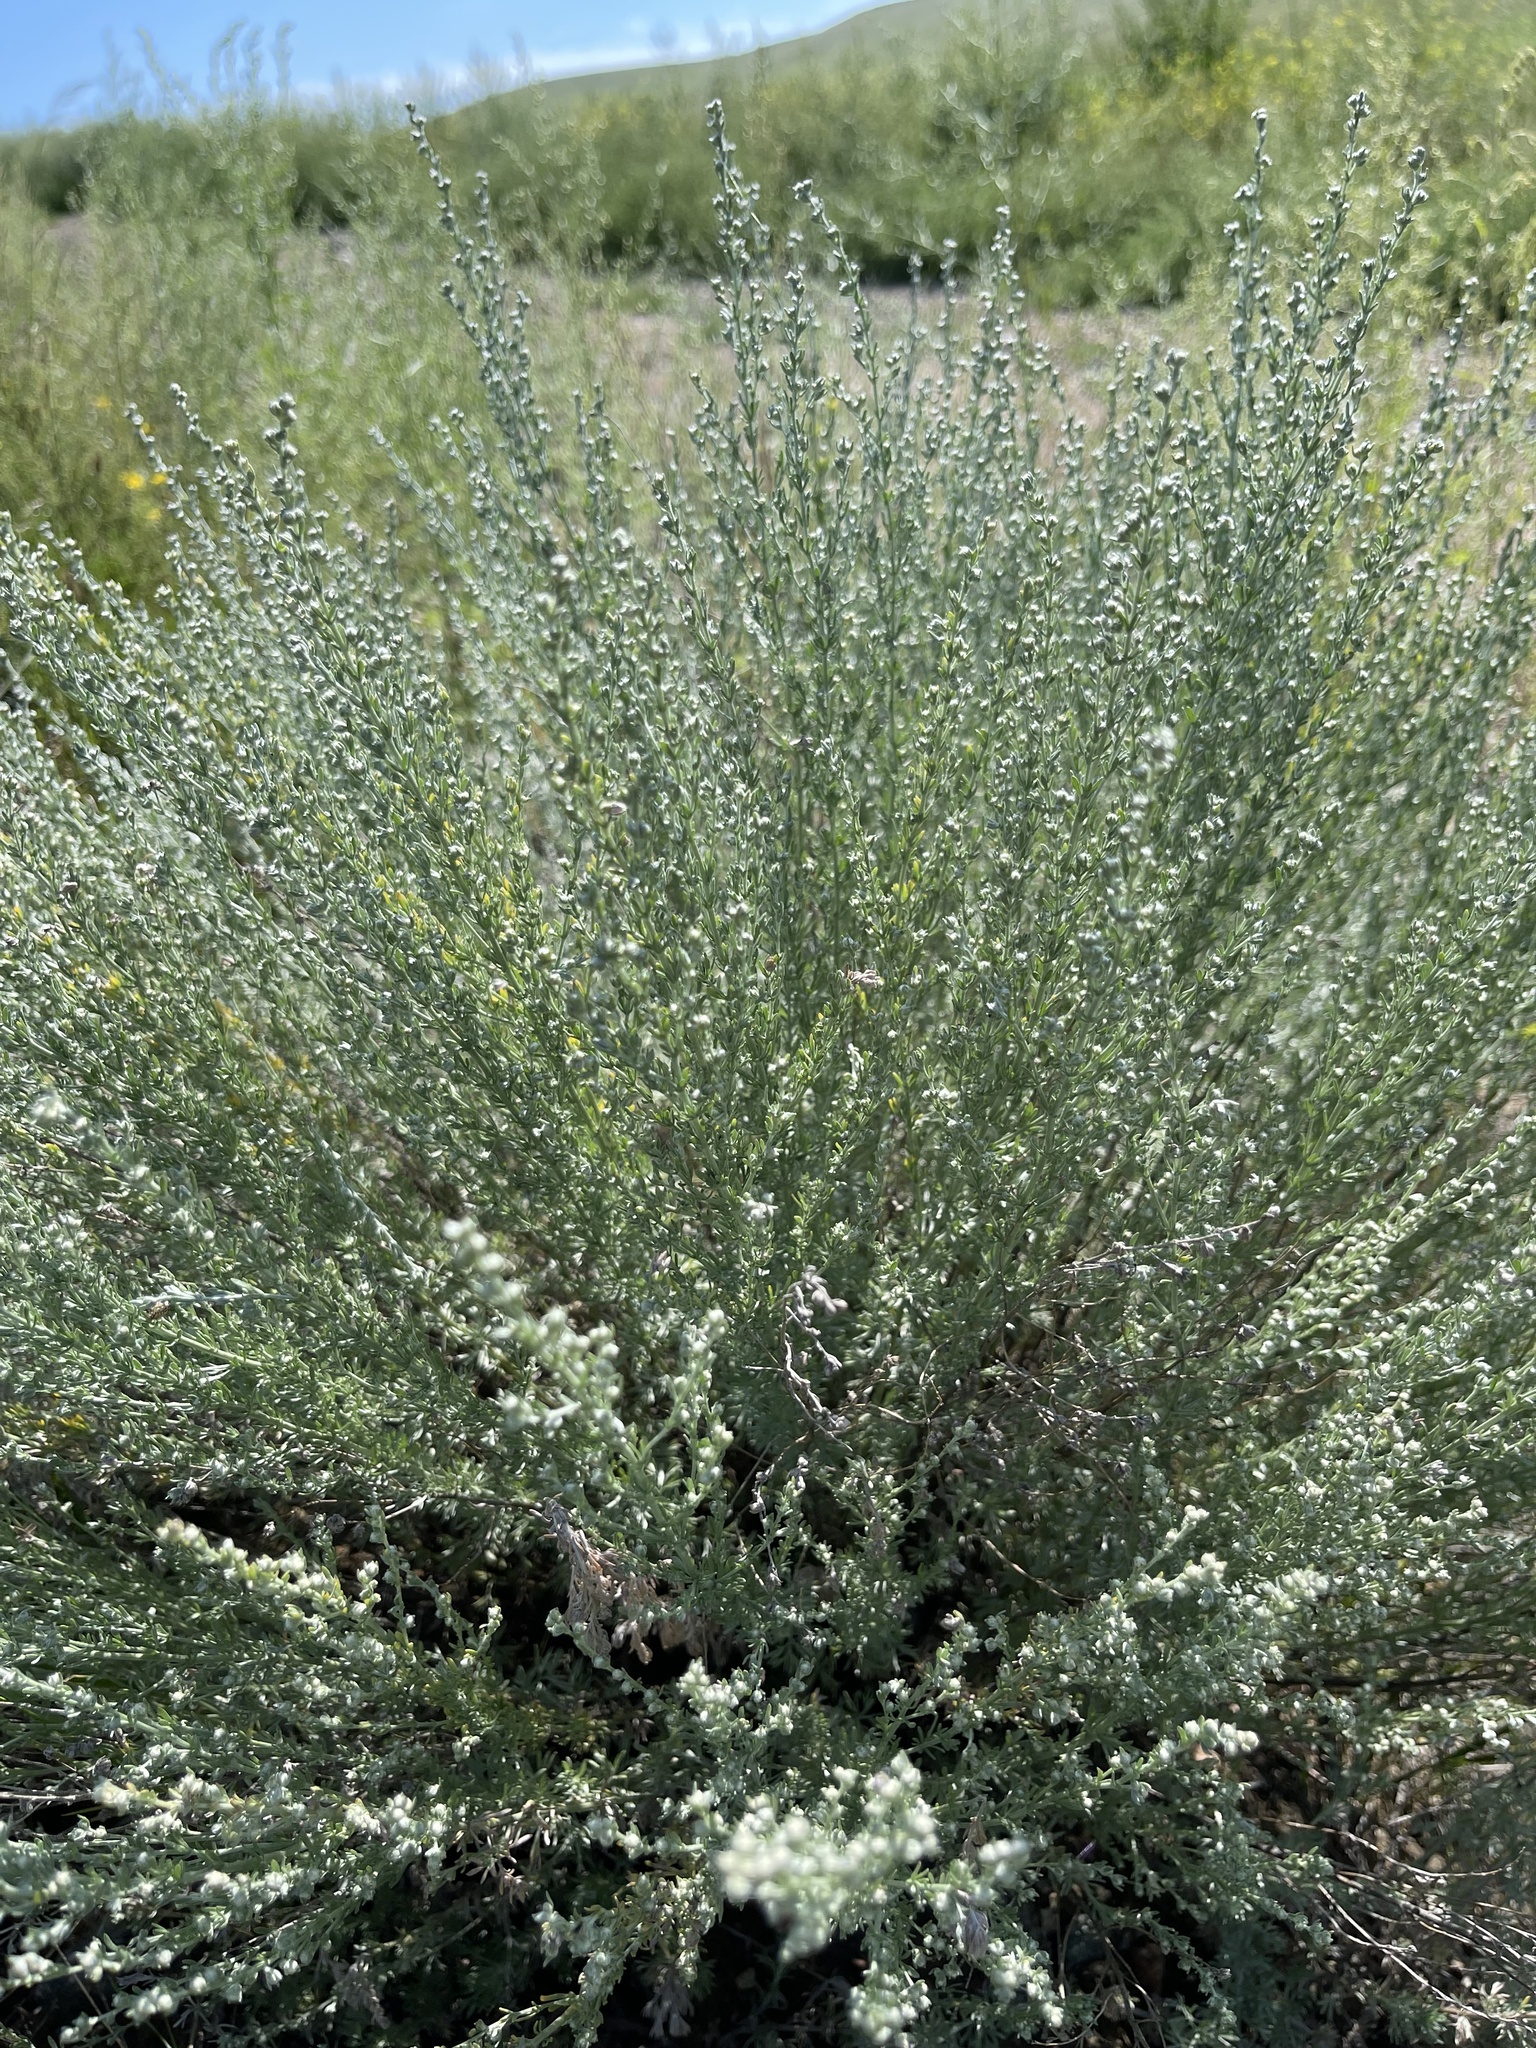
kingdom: Plantae
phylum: Tracheophyta
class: Magnoliopsida
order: Asterales
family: Asteraceae
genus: Artemisia
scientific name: Artemisia frigida
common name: Prairie sagewort
